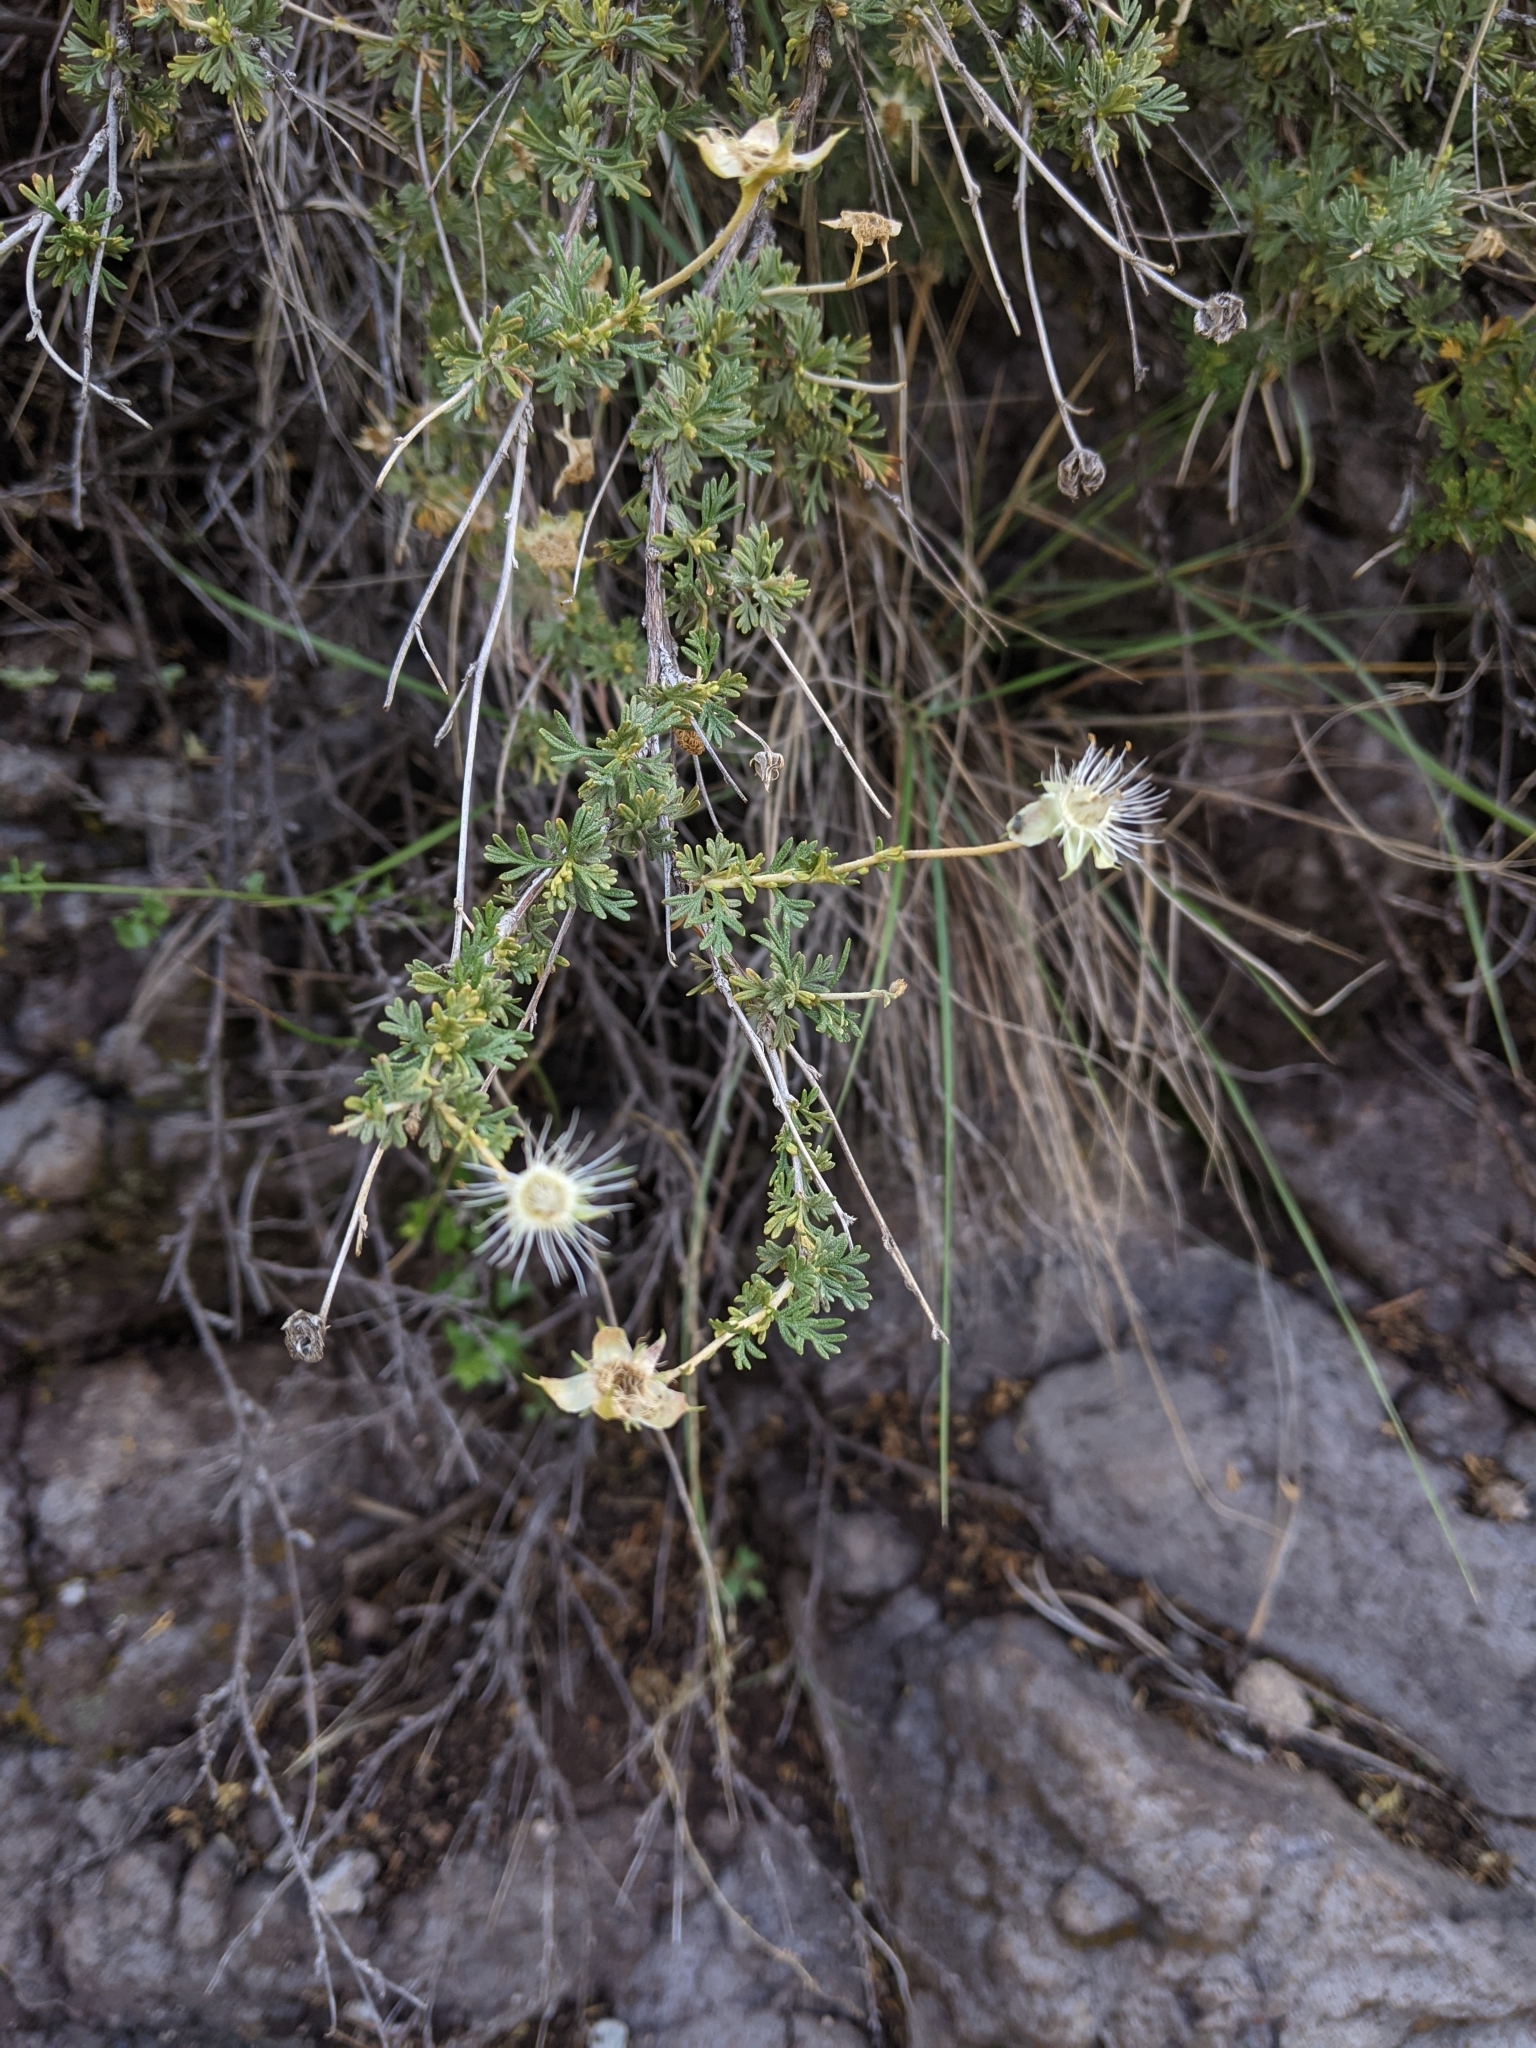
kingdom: Plantae
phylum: Tracheophyta
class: Magnoliopsida
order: Rosales
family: Rosaceae
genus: Fallugia
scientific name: Fallugia paradoxa
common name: Apache-plume
